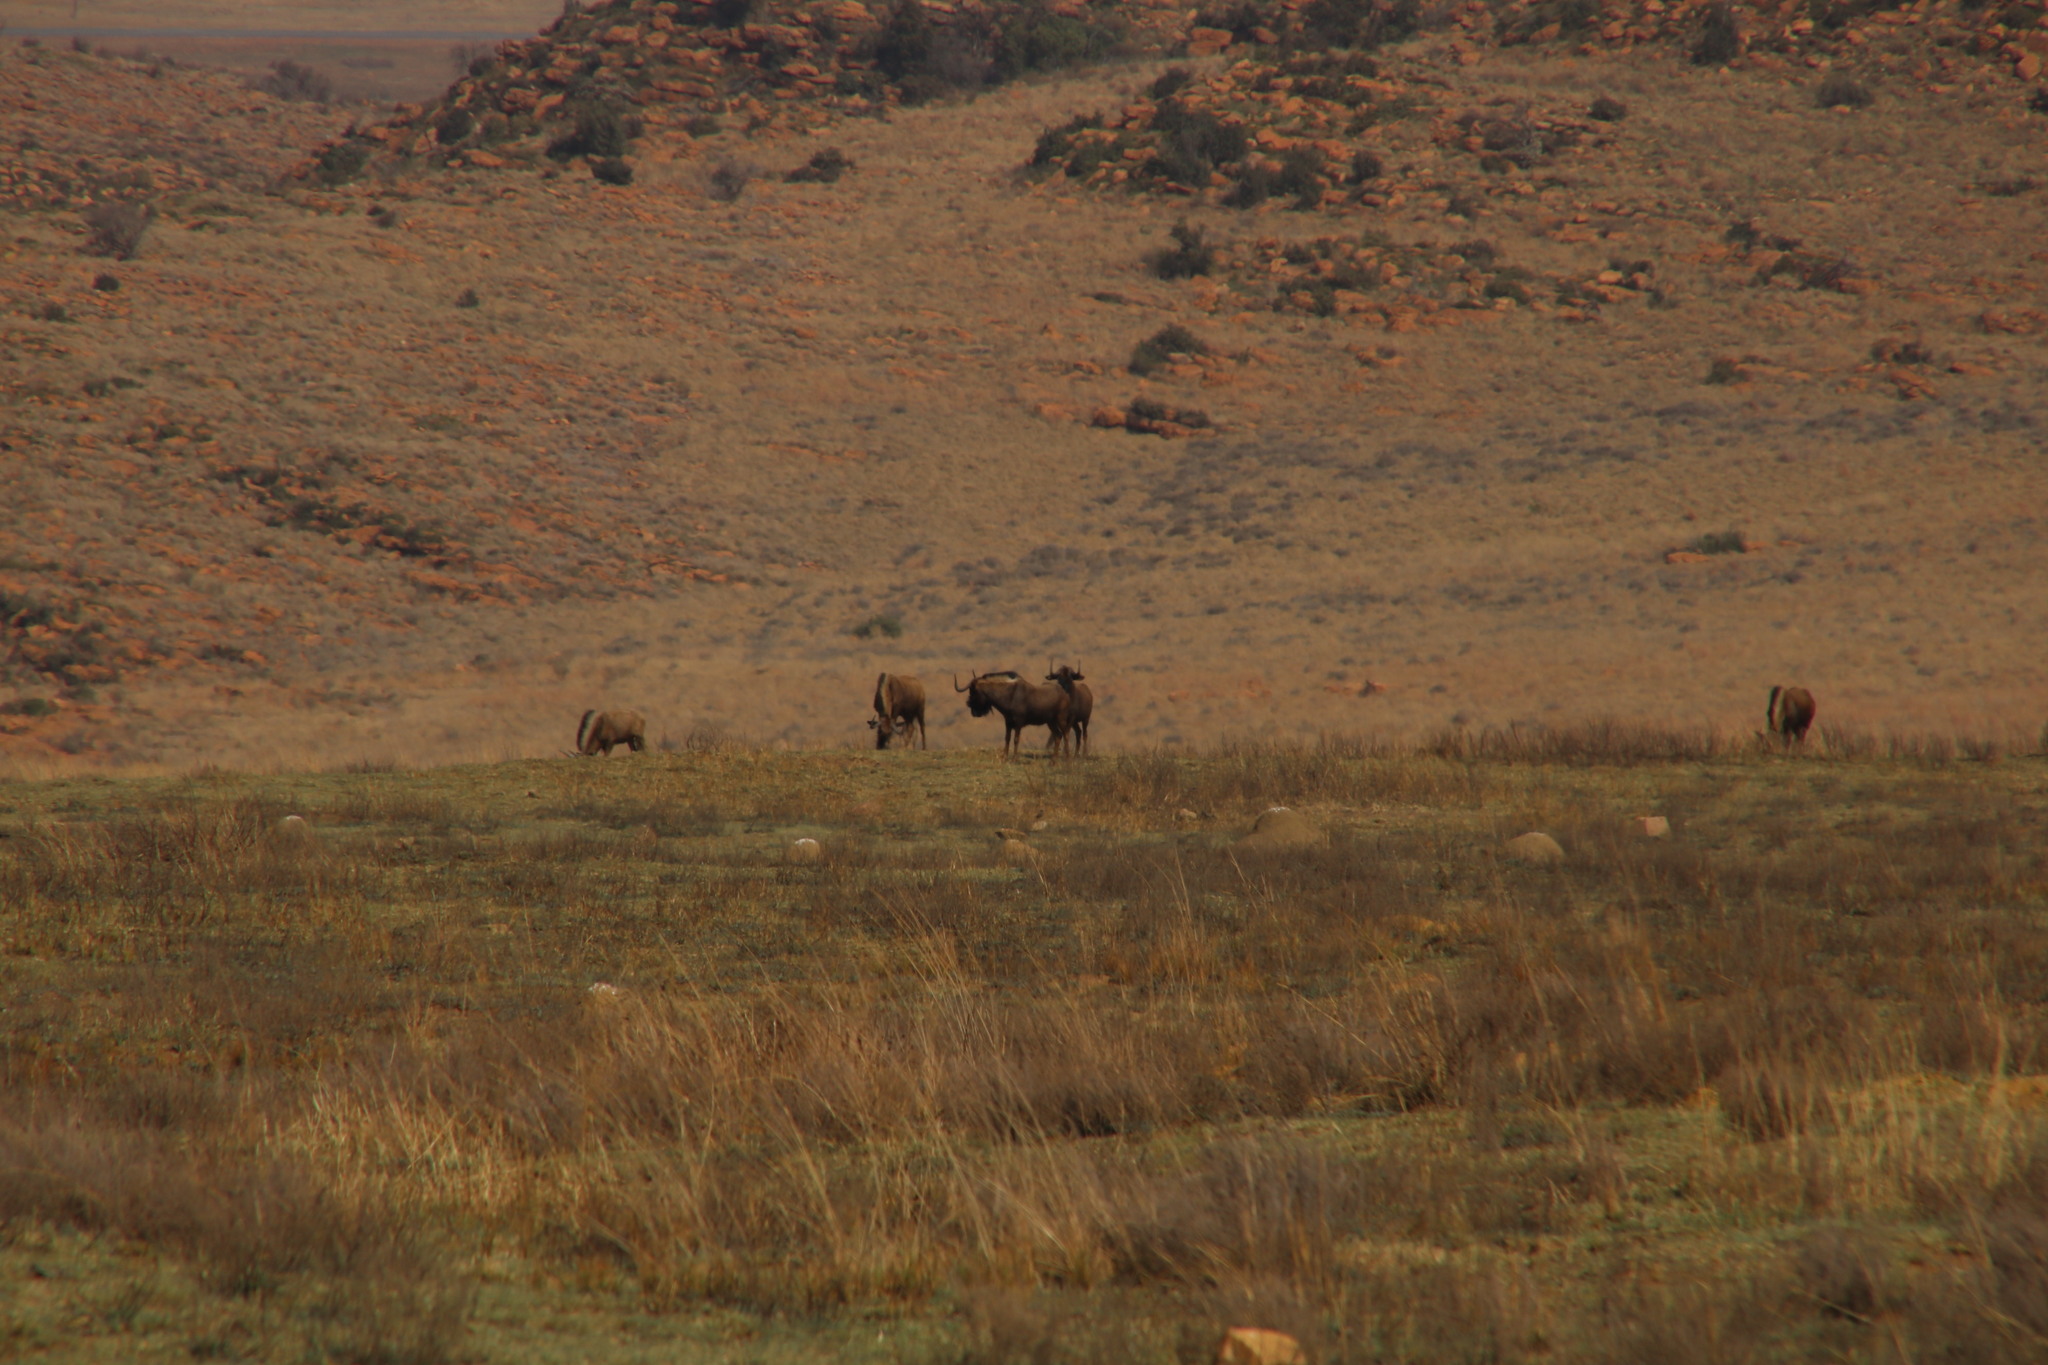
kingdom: Animalia
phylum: Chordata
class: Mammalia
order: Artiodactyla
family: Bovidae
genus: Connochaetes
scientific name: Connochaetes gnou
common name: Black wildebeest
